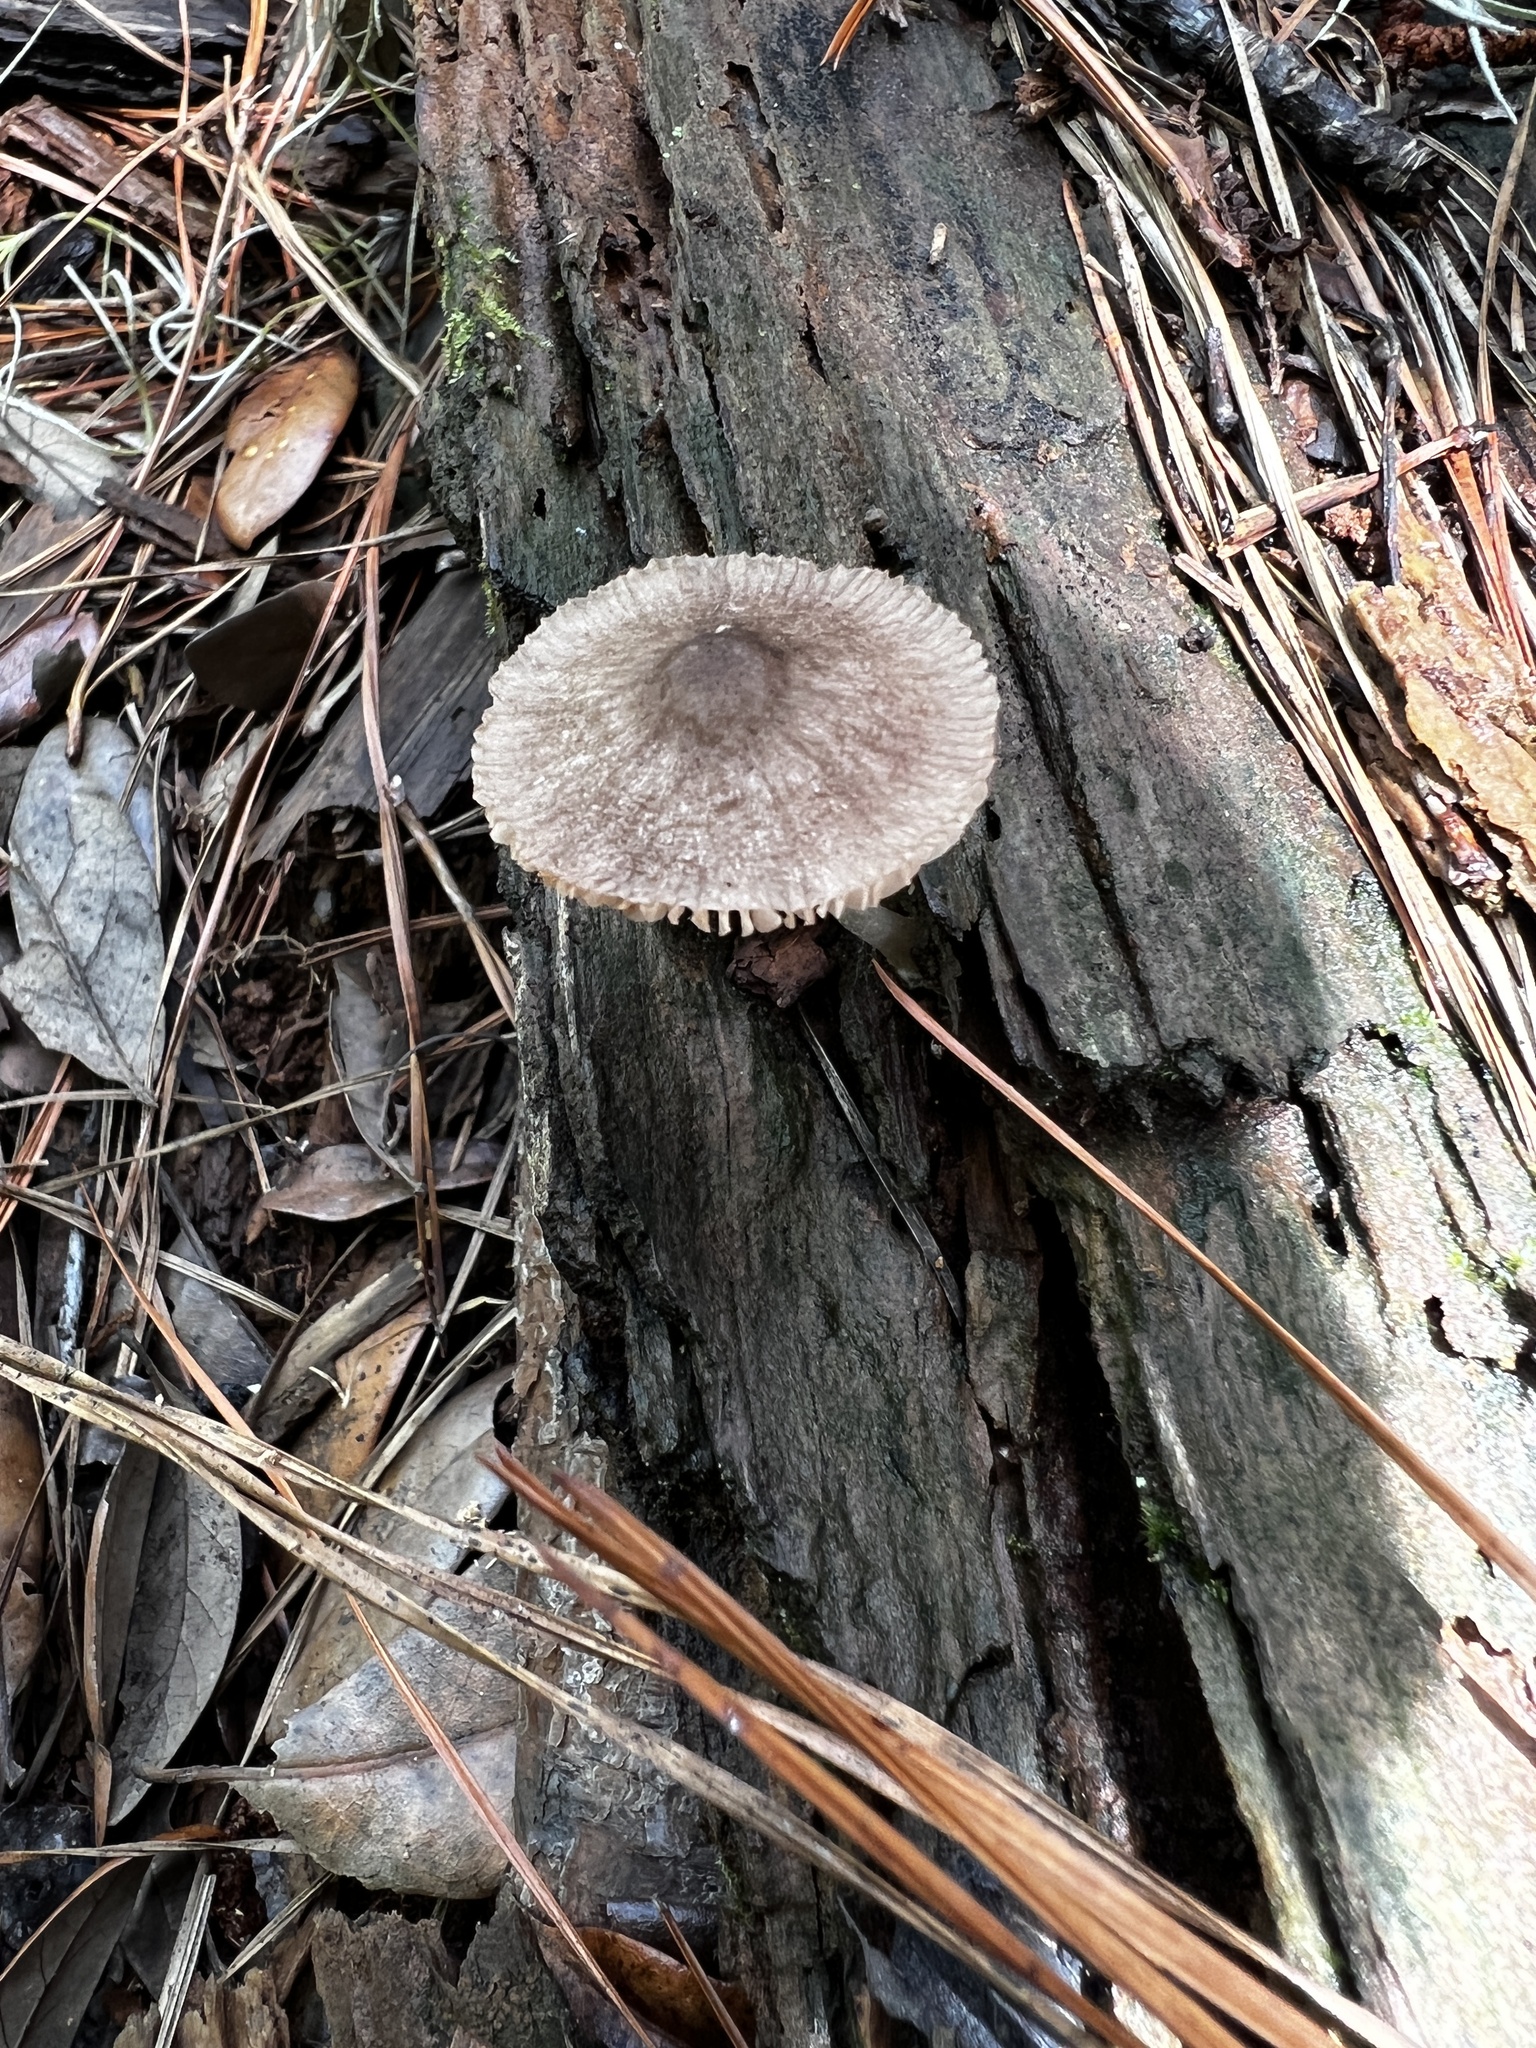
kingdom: Fungi
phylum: Basidiomycota
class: Agaricomycetes
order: Agaricales
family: Pluteaceae
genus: Pluteus
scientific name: Pluteus septocystidiatus
